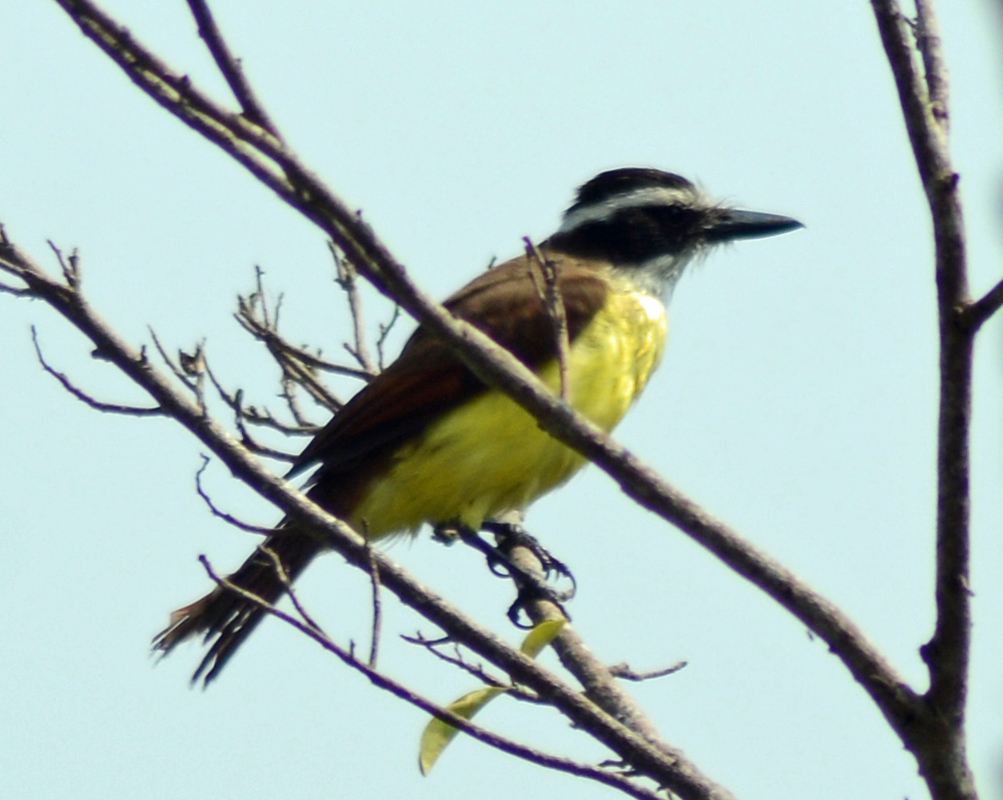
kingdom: Animalia
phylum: Chordata
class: Aves
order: Passeriformes
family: Tyrannidae
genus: Pitangus
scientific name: Pitangus sulphuratus
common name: Great kiskadee
